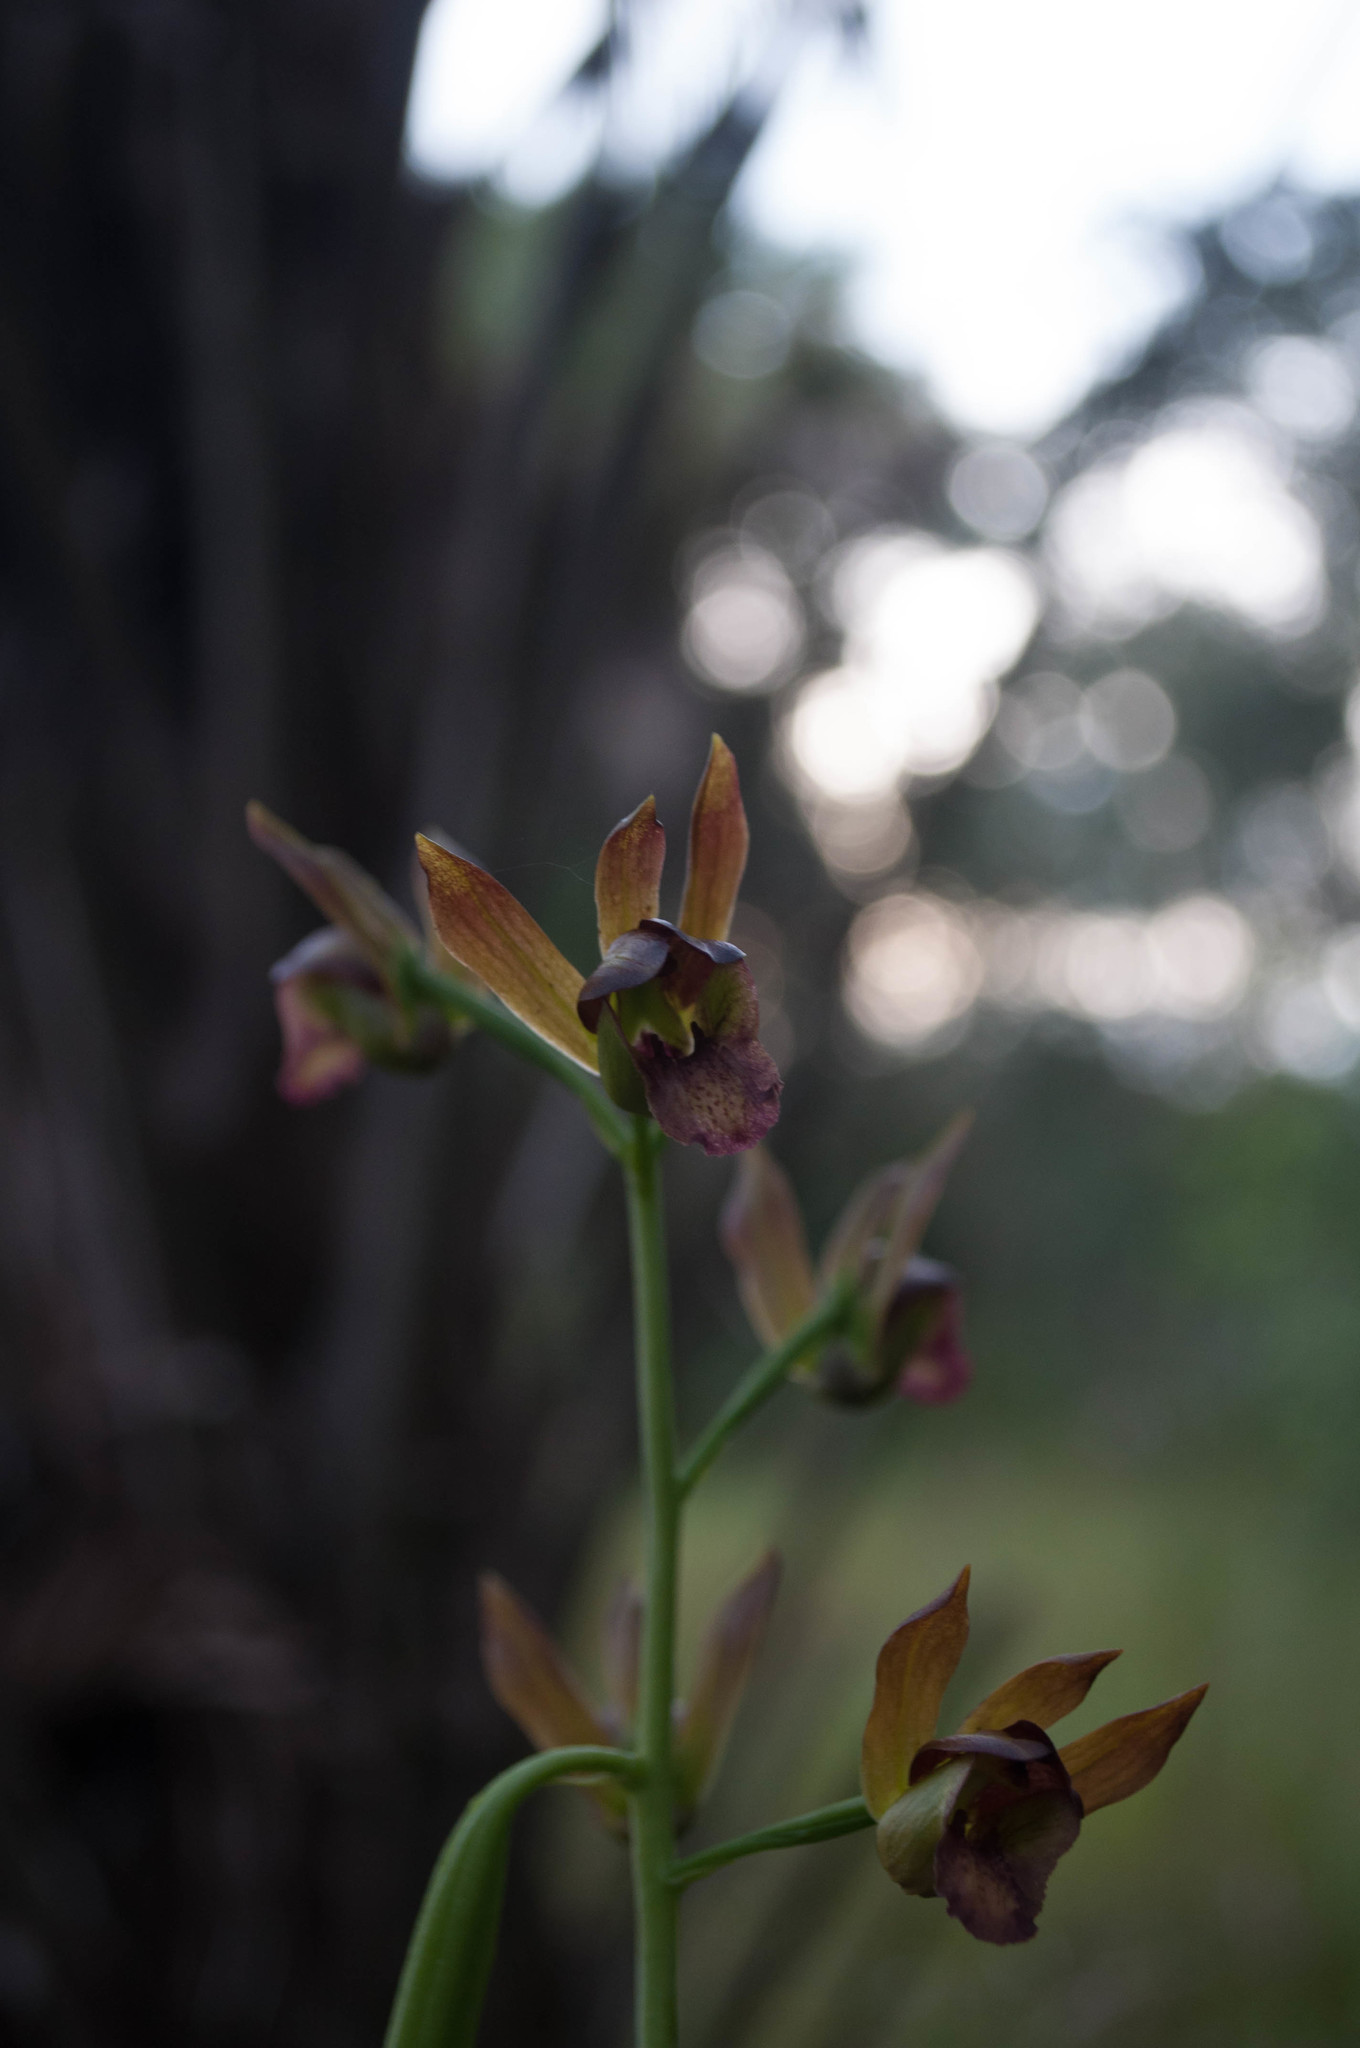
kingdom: Plantae
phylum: Tracheophyta
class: Liliopsida
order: Asparagales
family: Orchidaceae
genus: Eulophia
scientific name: Eulophia alta
